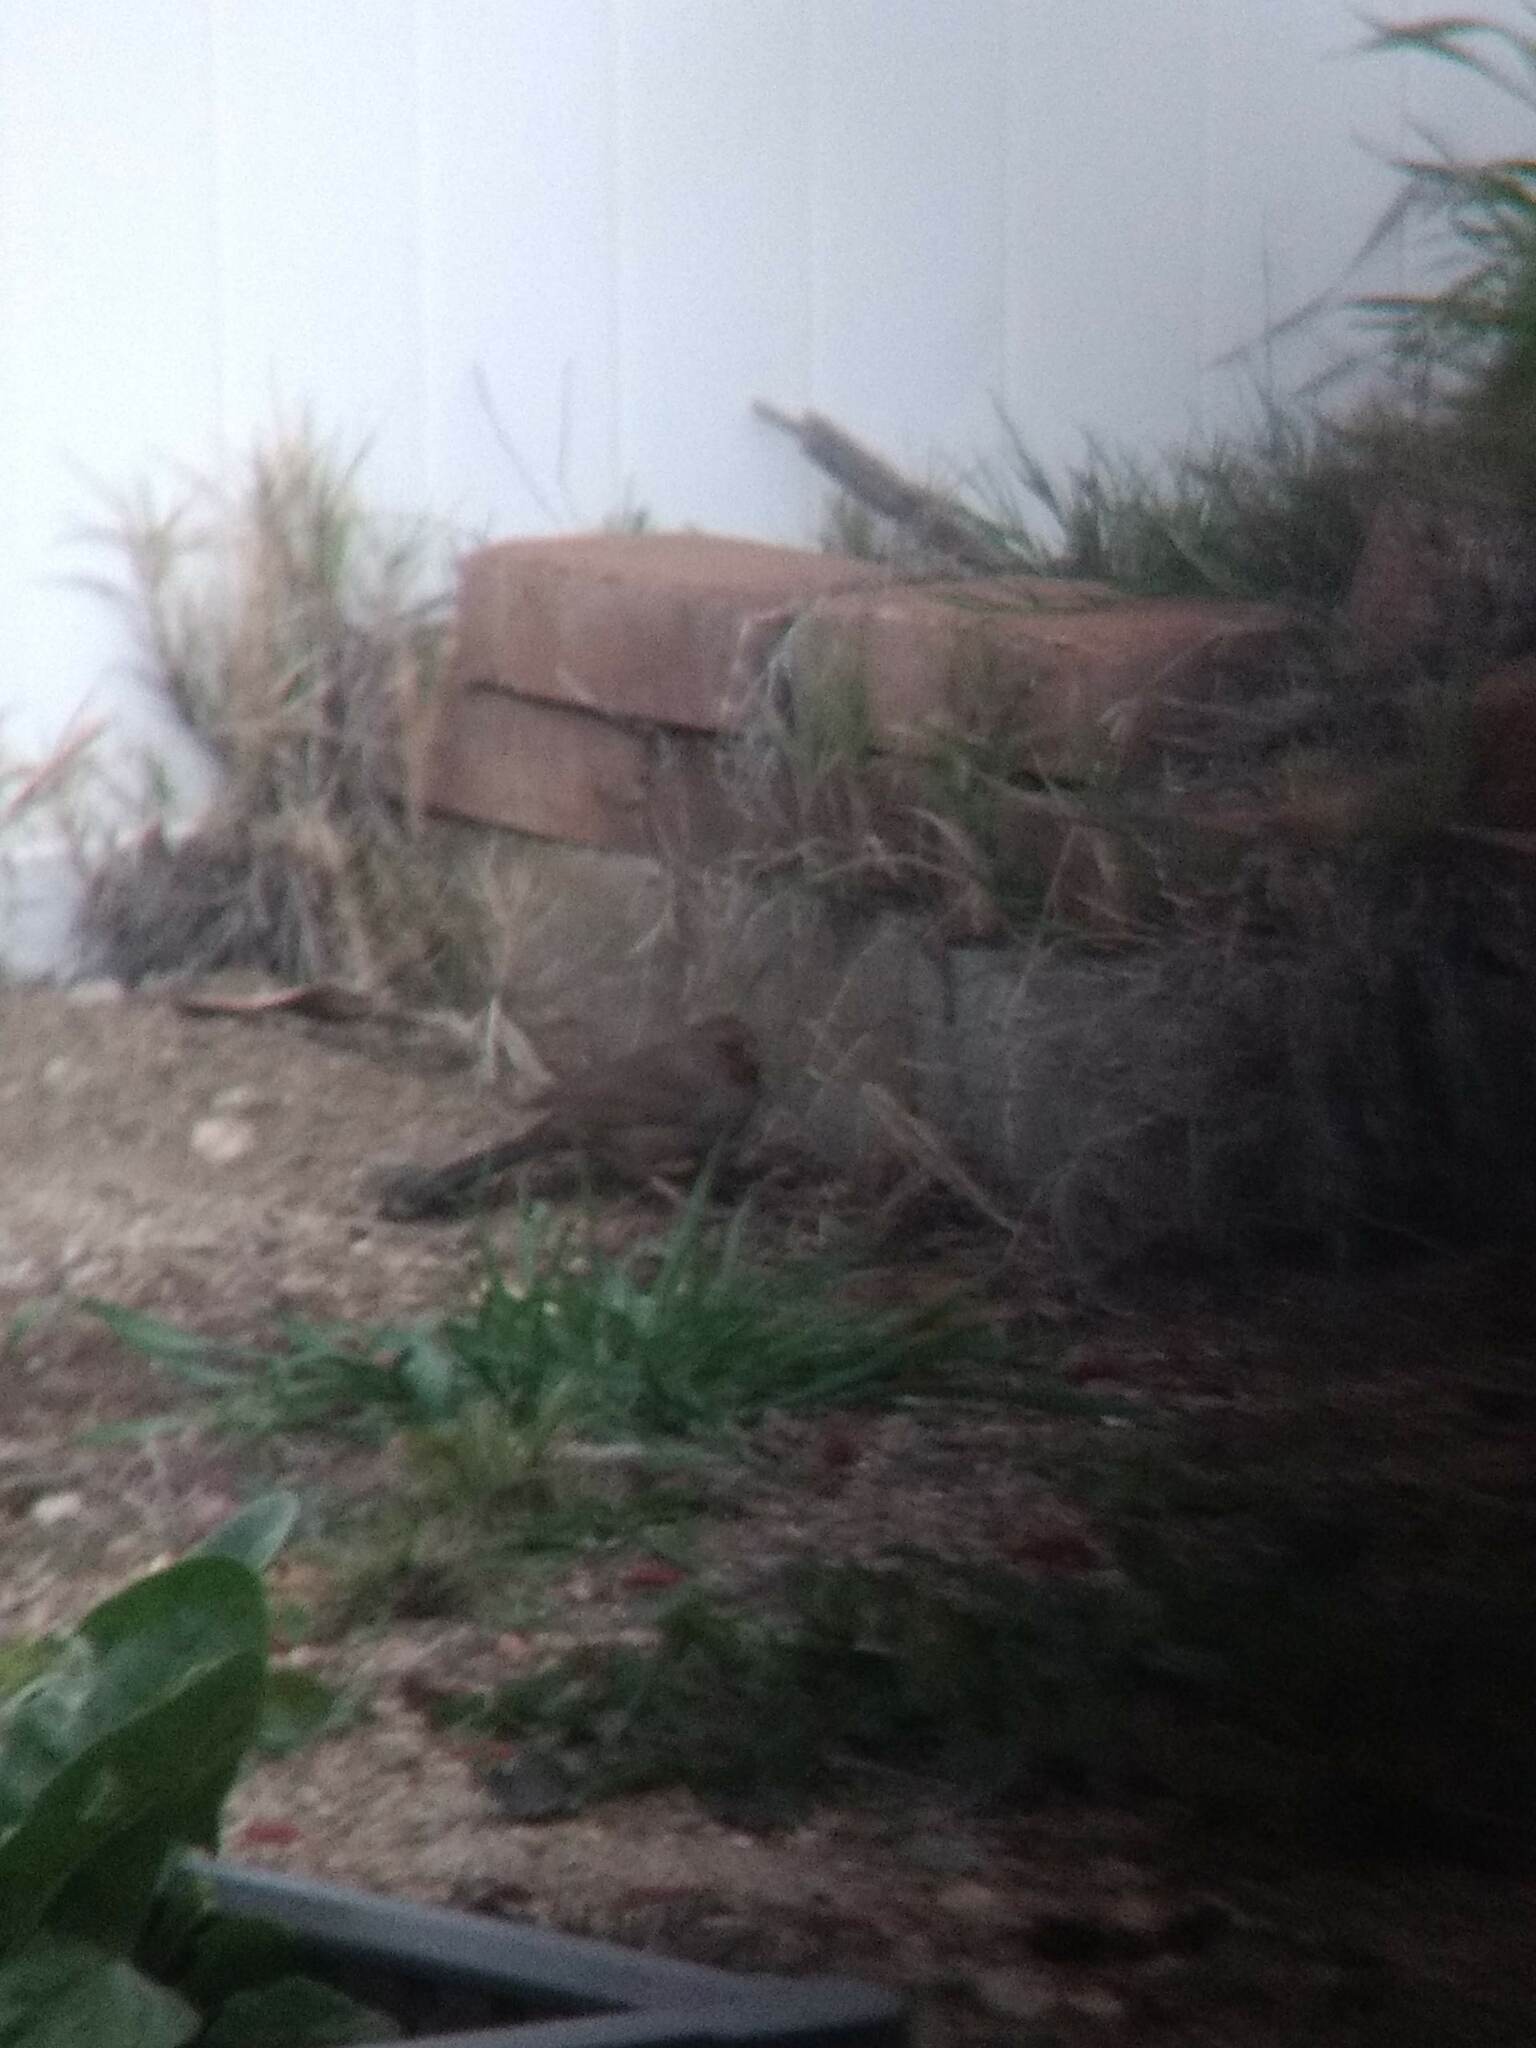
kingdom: Animalia
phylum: Chordata
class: Aves
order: Passeriformes
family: Passerellidae
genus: Melozone
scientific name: Melozone crissalis
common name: California towhee
